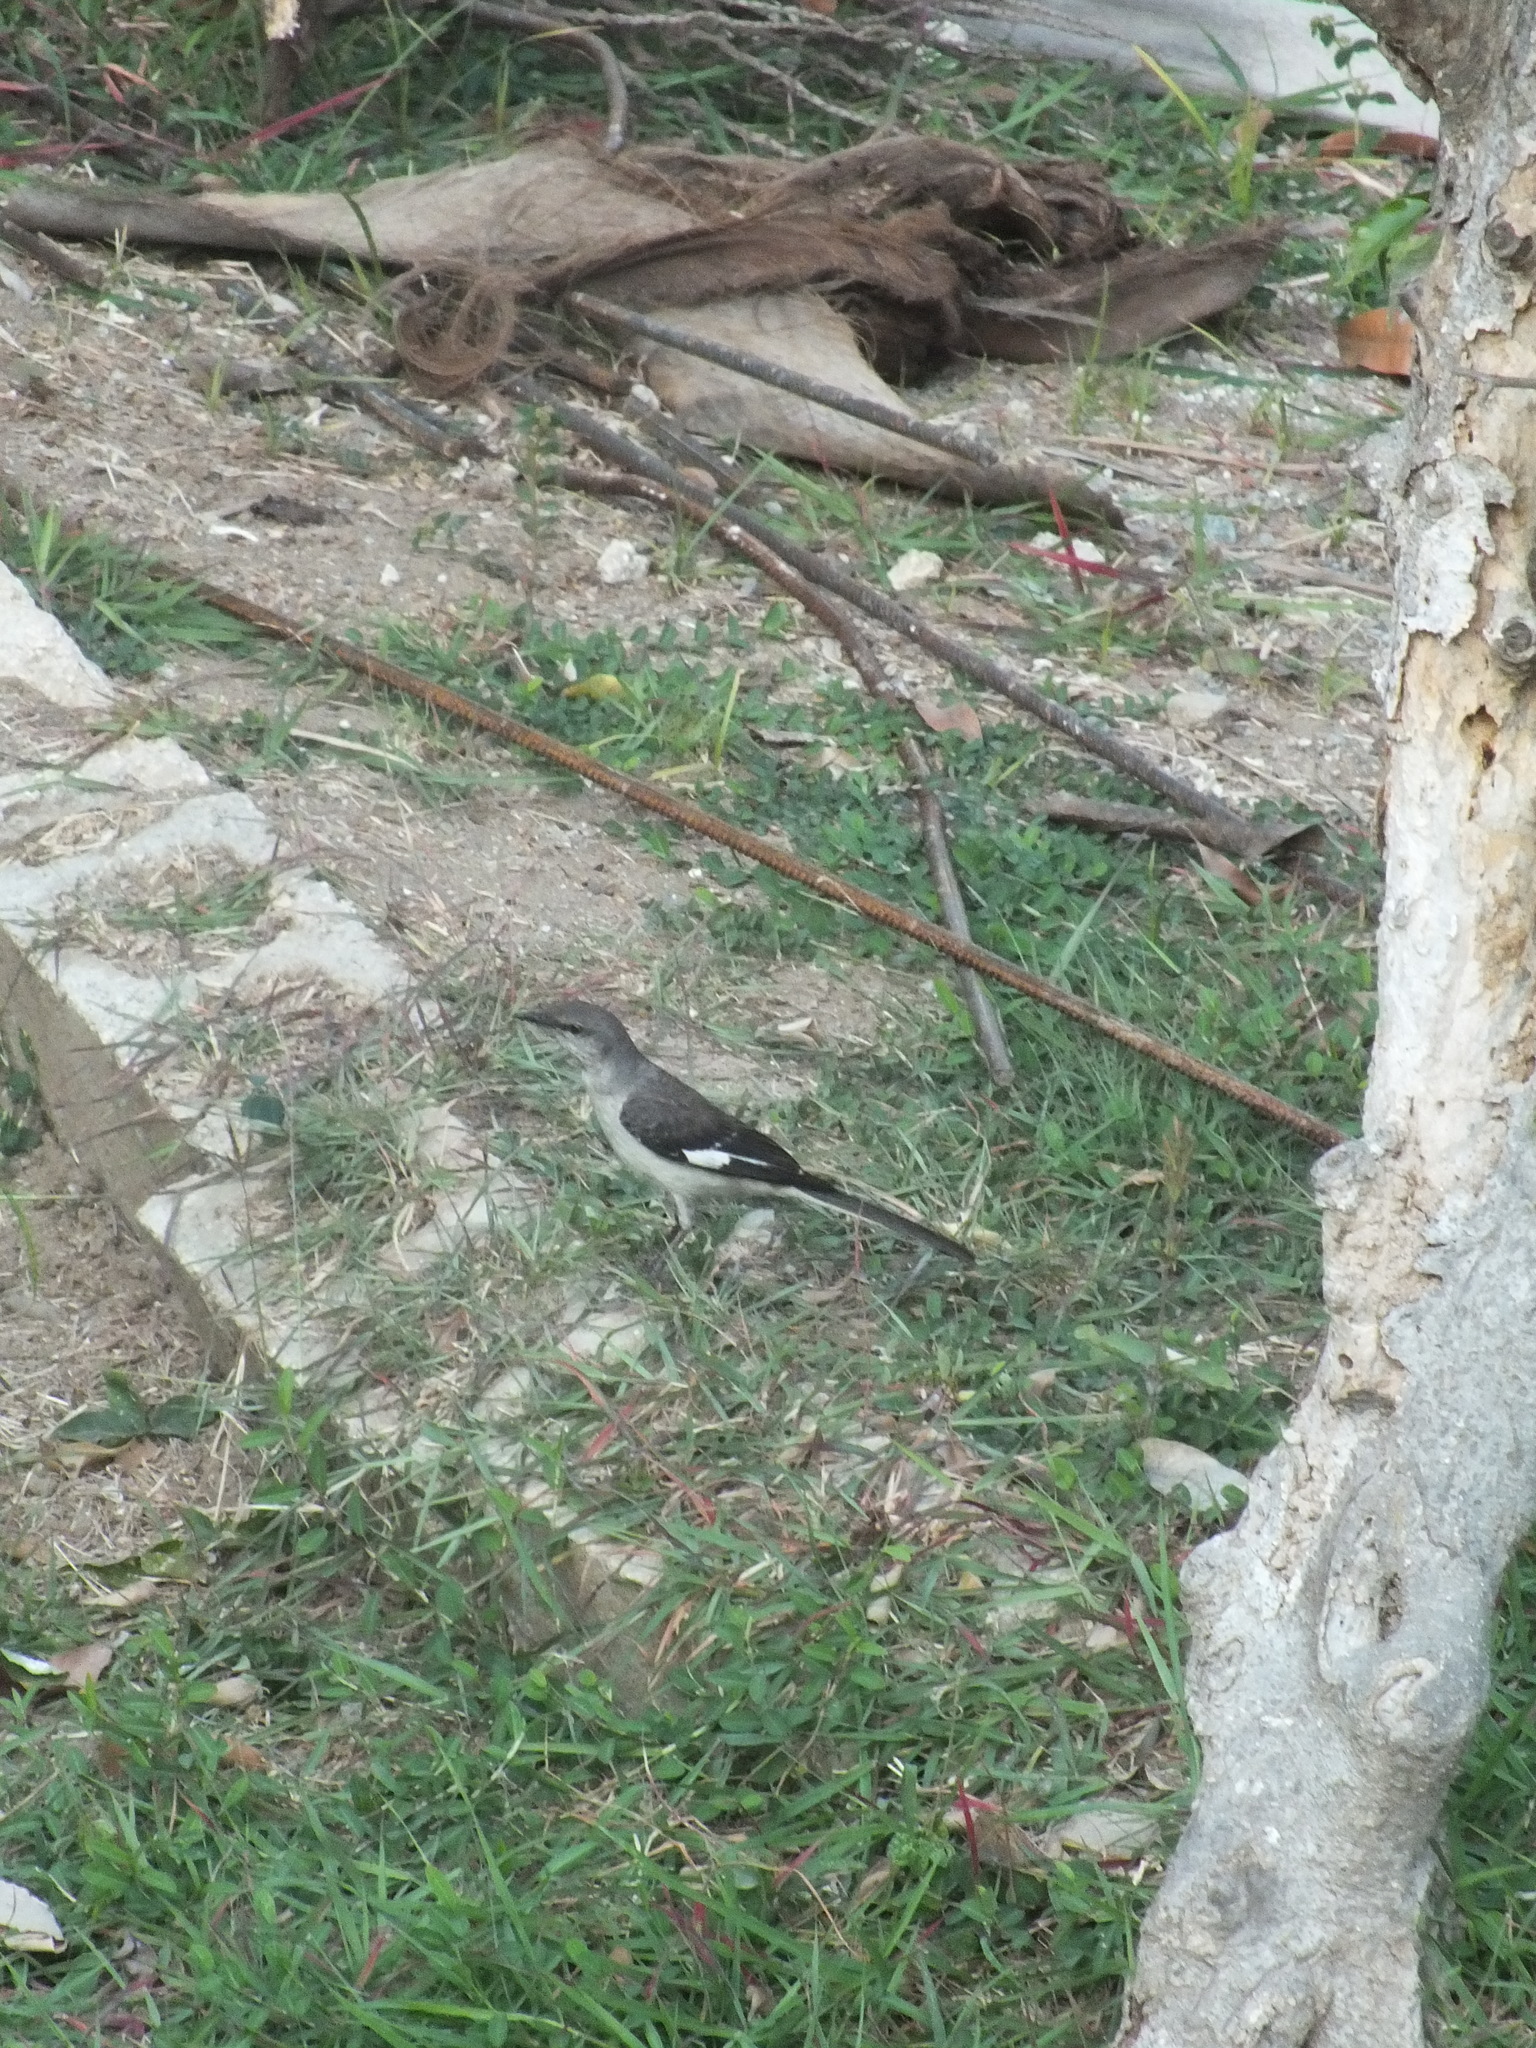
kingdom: Animalia
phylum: Chordata
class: Aves
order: Passeriformes
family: Mimidae
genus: Mimus
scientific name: Mimus polyglottos
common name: Northern mockingbird
